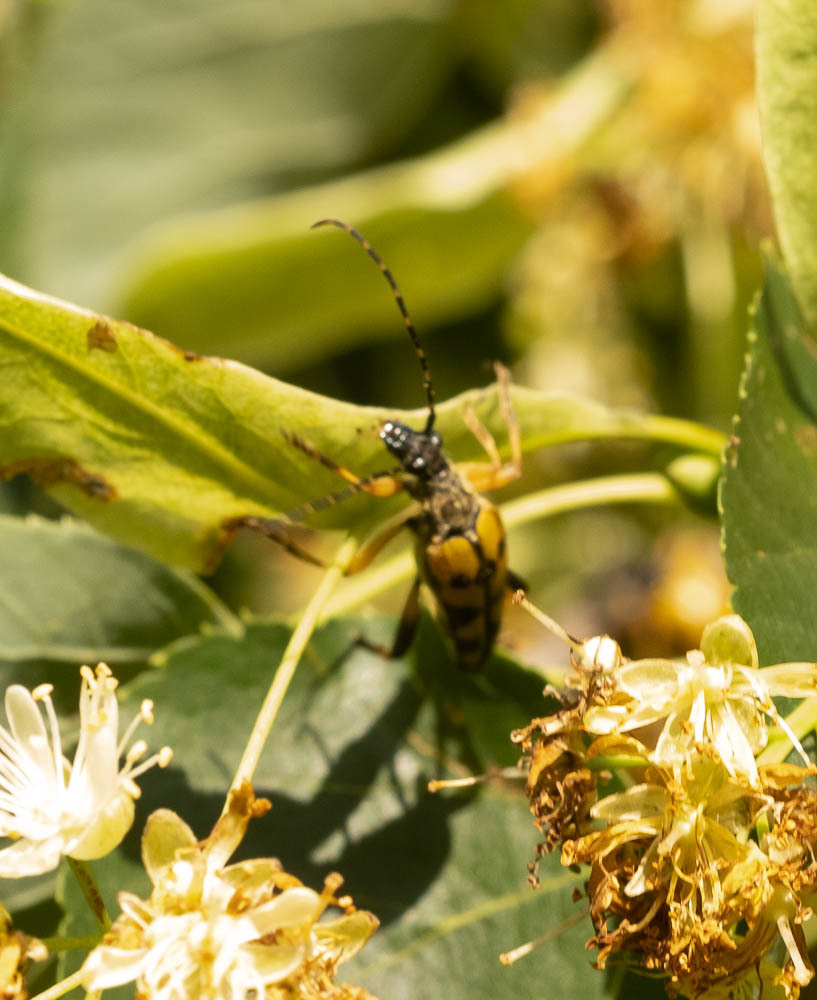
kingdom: Animalia
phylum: Arthropoda
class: Insecta
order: Coleoptera
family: Cerambycidae
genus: Rutpela
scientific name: Rutpela maculata
